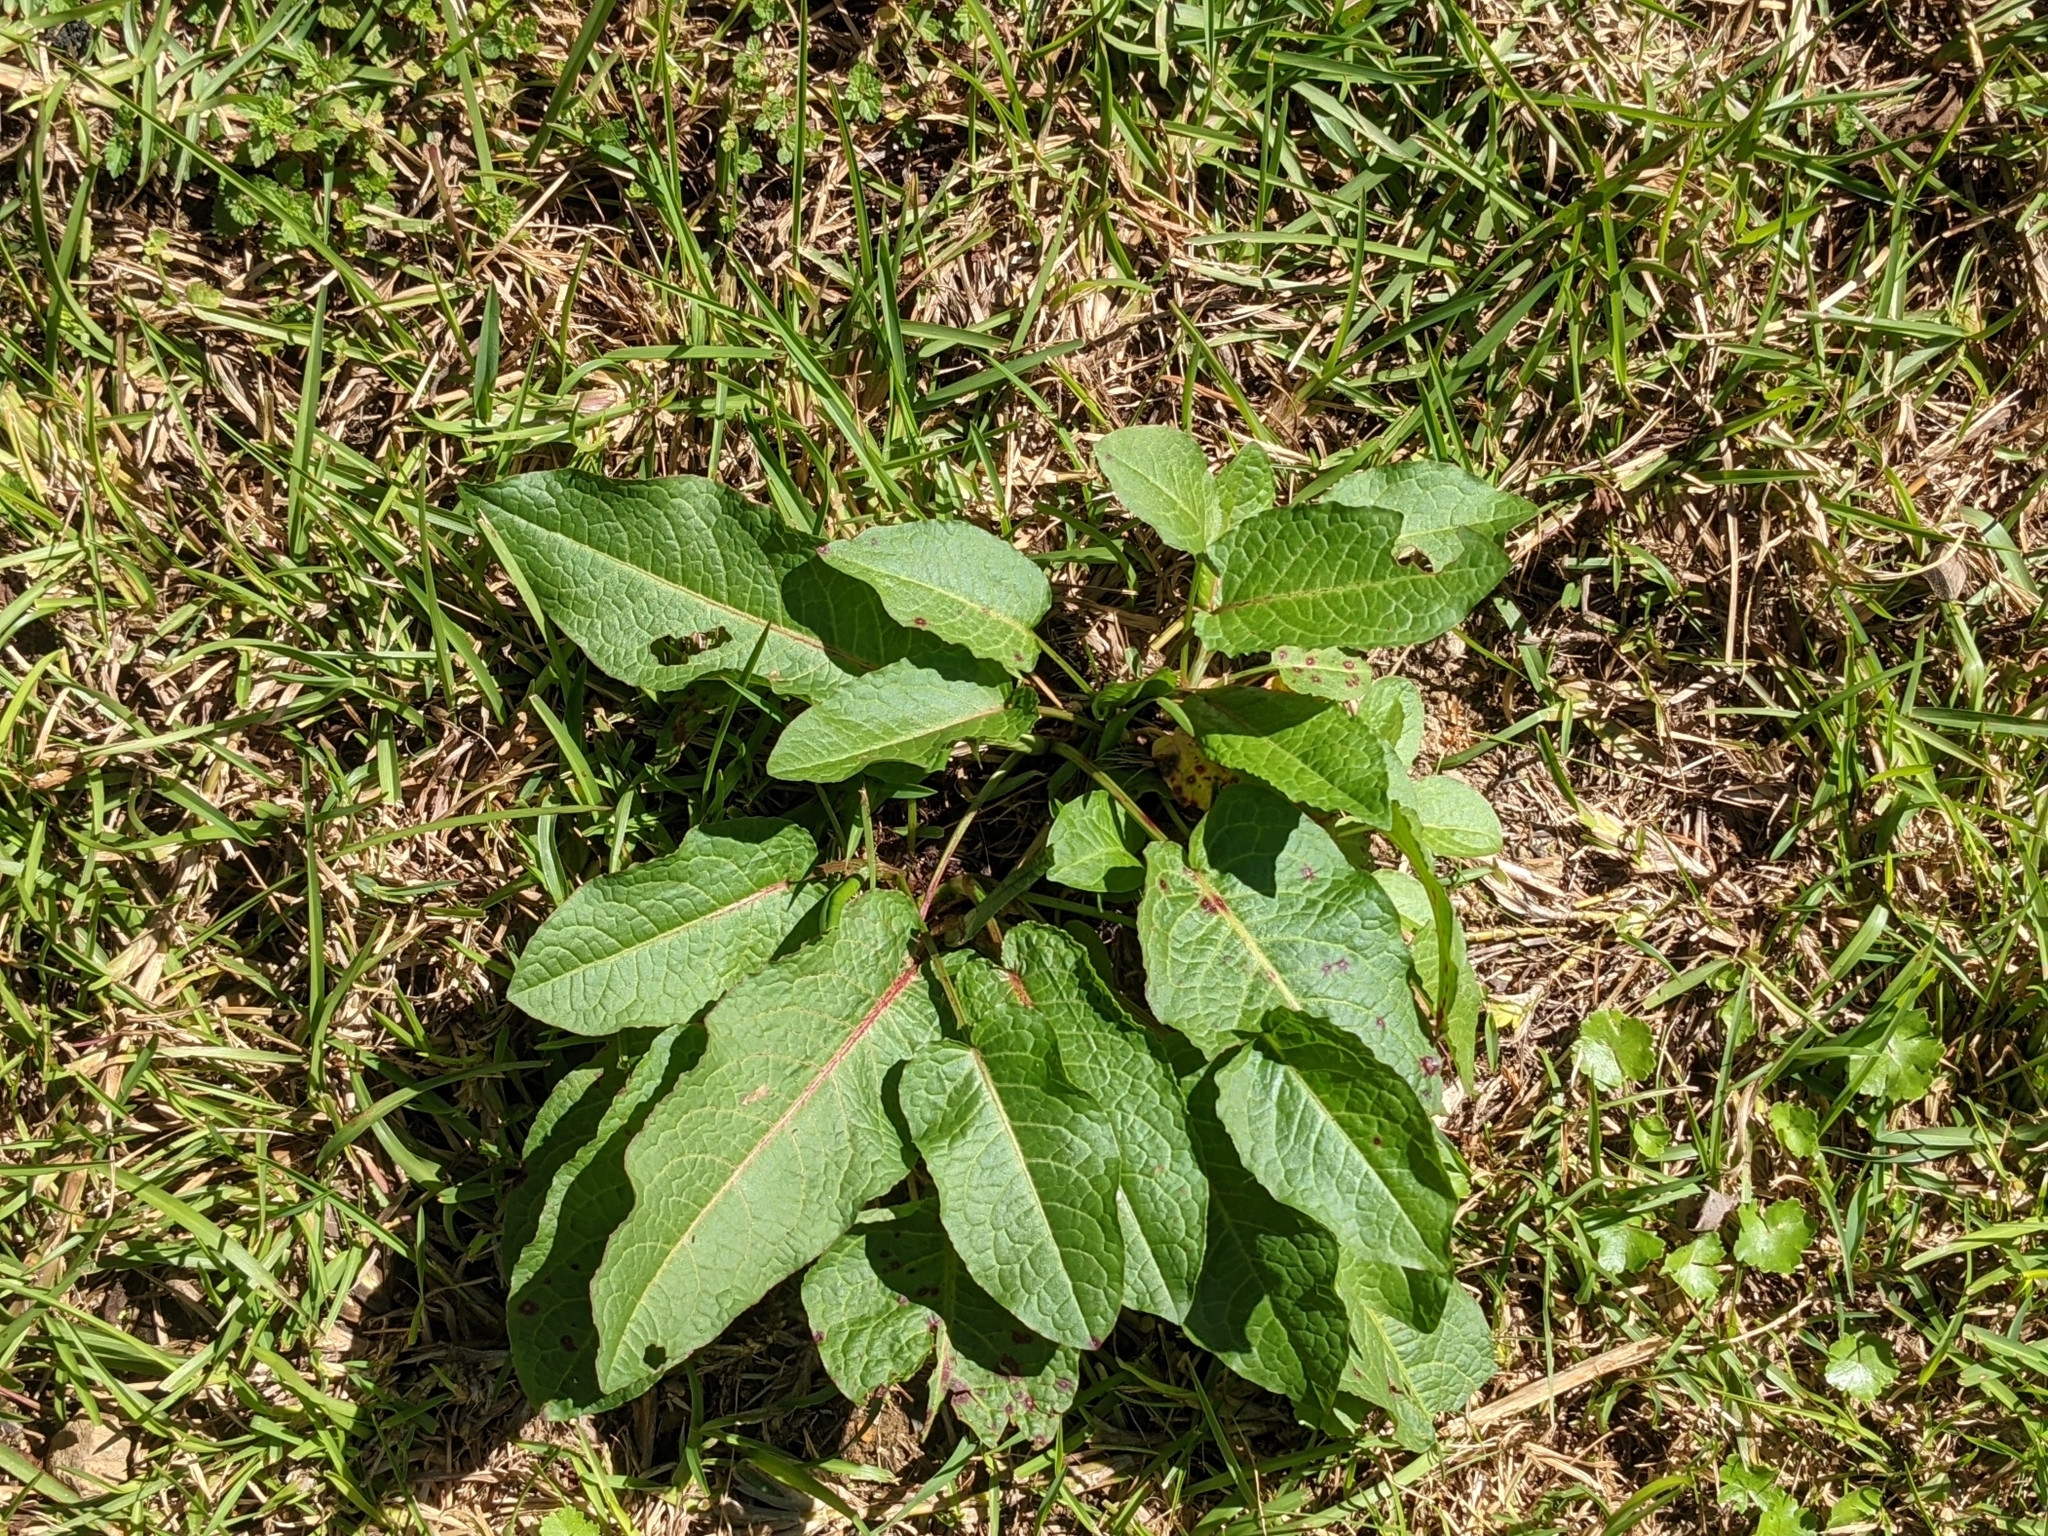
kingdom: Plantae
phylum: Tracheophyta
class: Magnoliopsida
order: Caryophyllales
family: Polygonaceae
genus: Rumex
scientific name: Rumex obtusifolius
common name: Bitter dock
